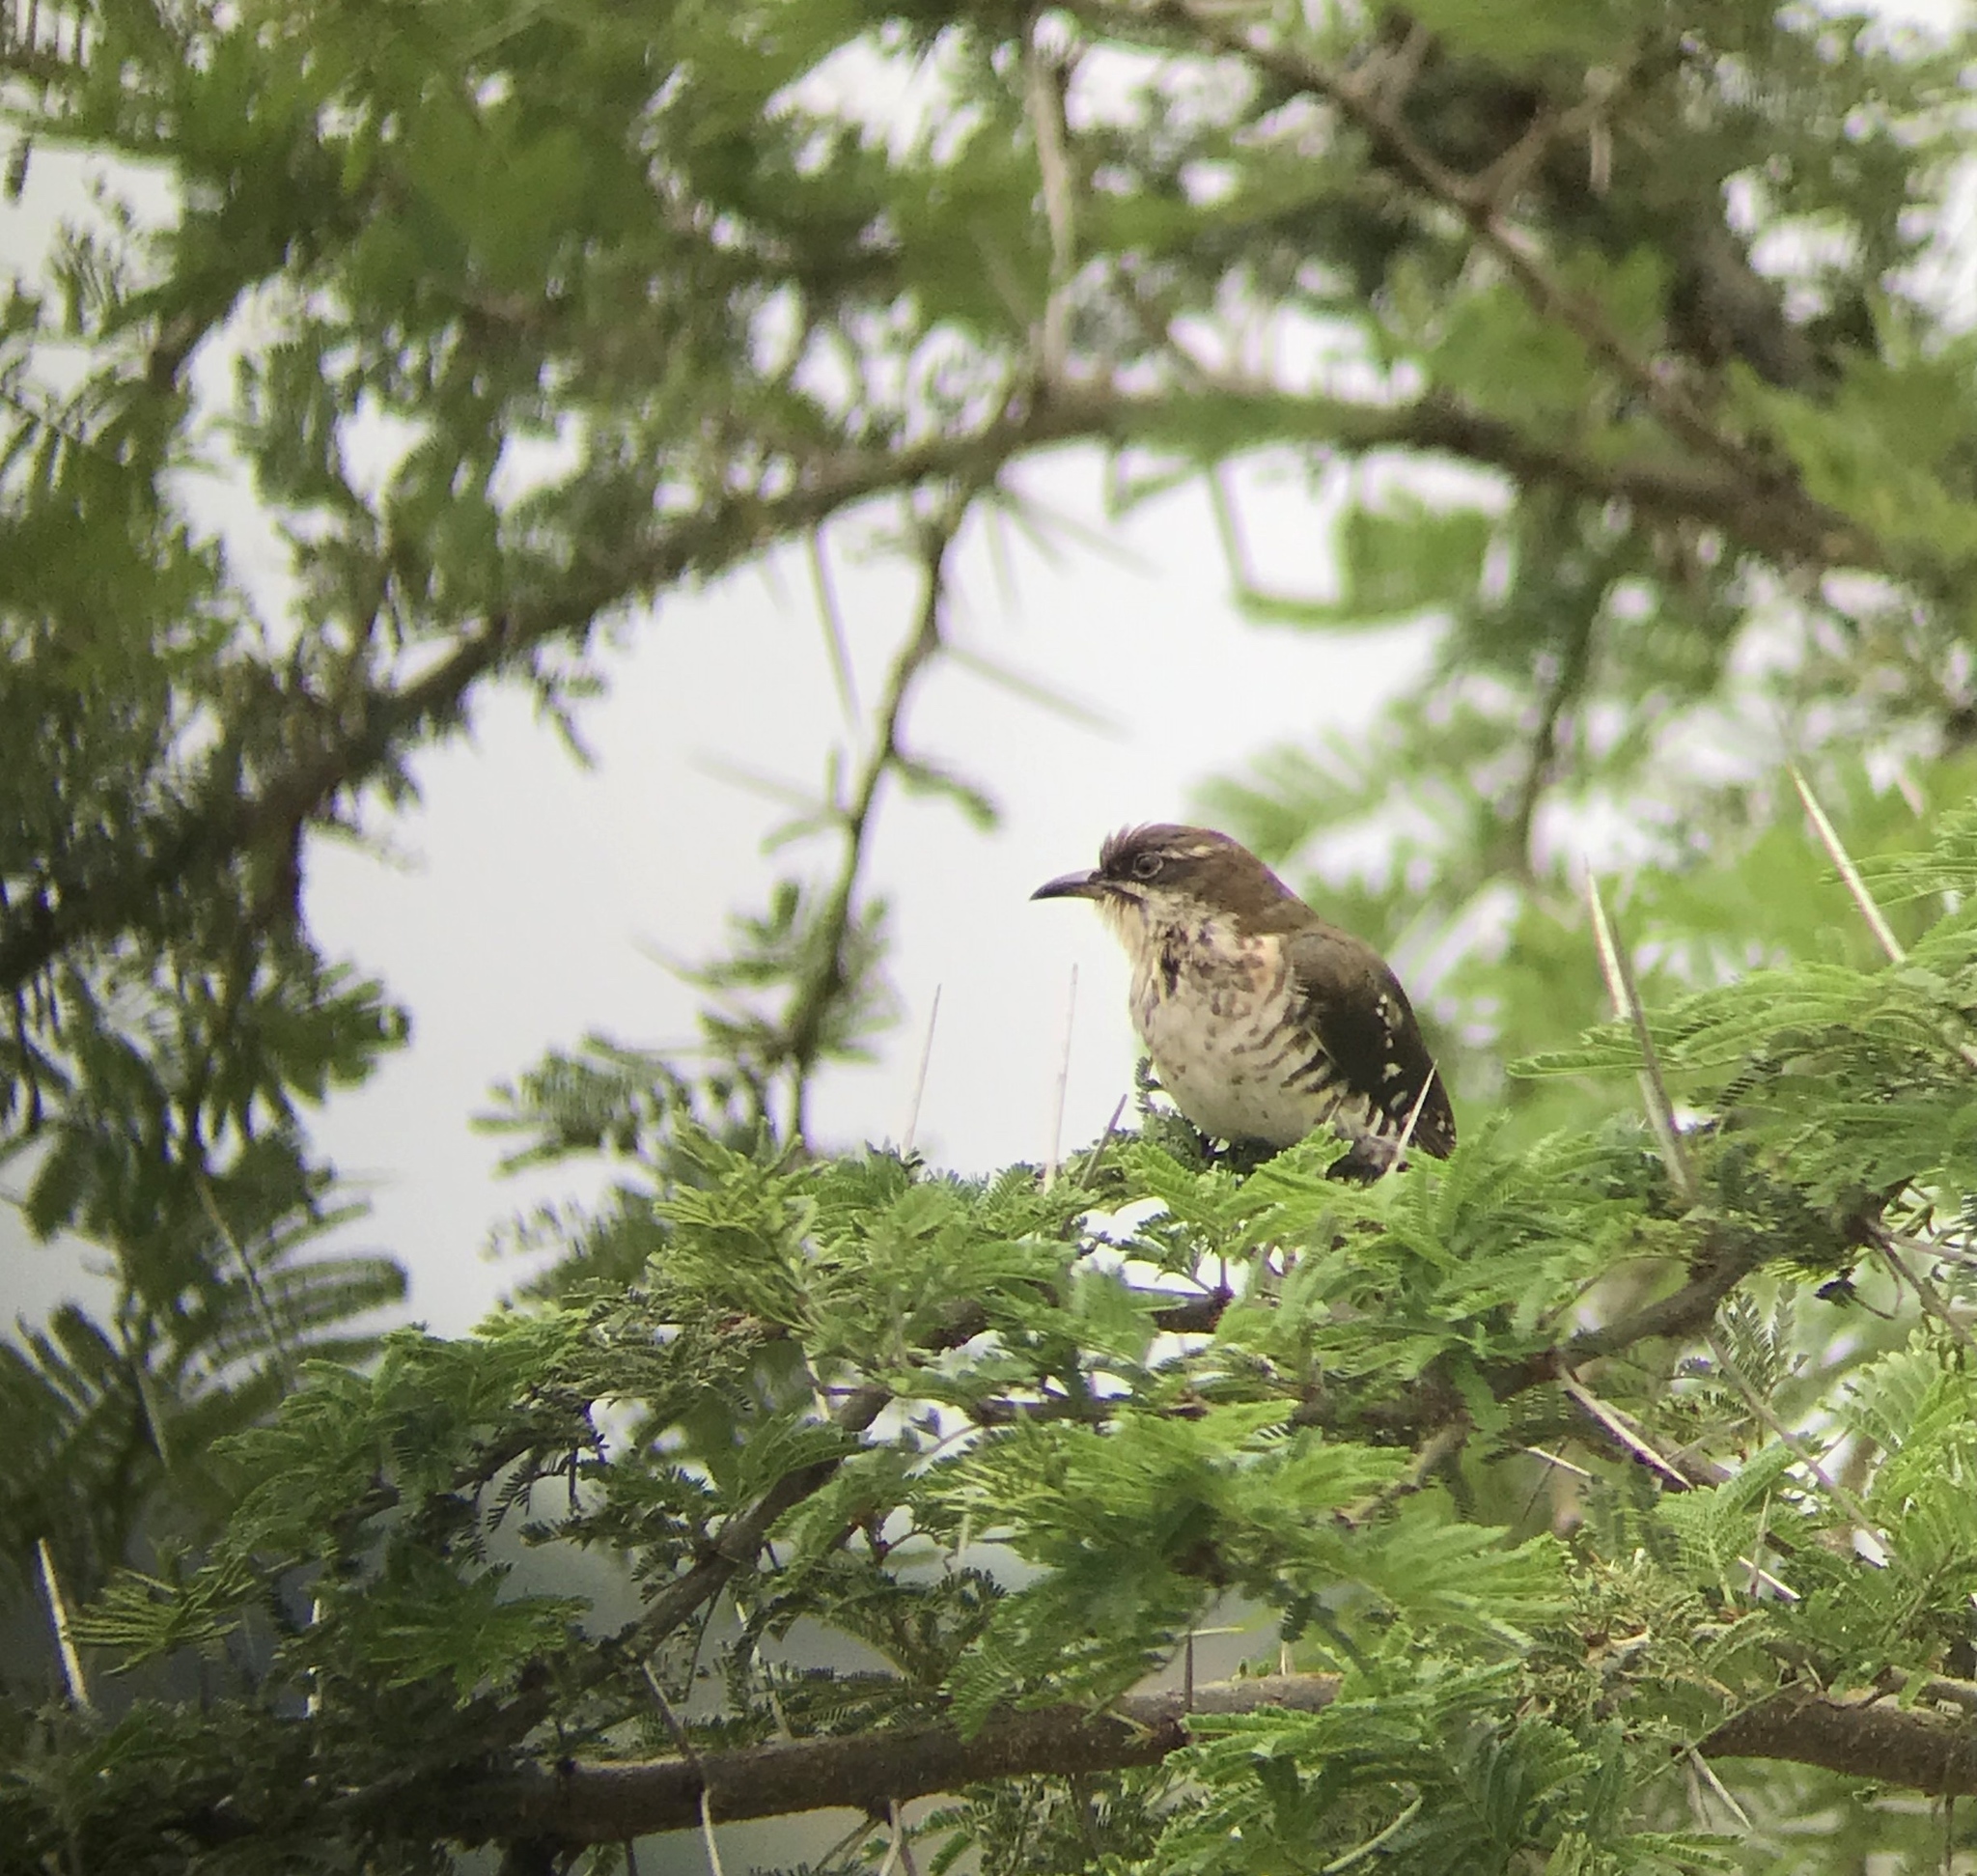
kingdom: Animalia
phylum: Chordata
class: Aves
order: Cuculiformes
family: Cuculidae
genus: Chrysococcyx
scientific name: Chrysococcyx caprius
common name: Diederik cuckoo
